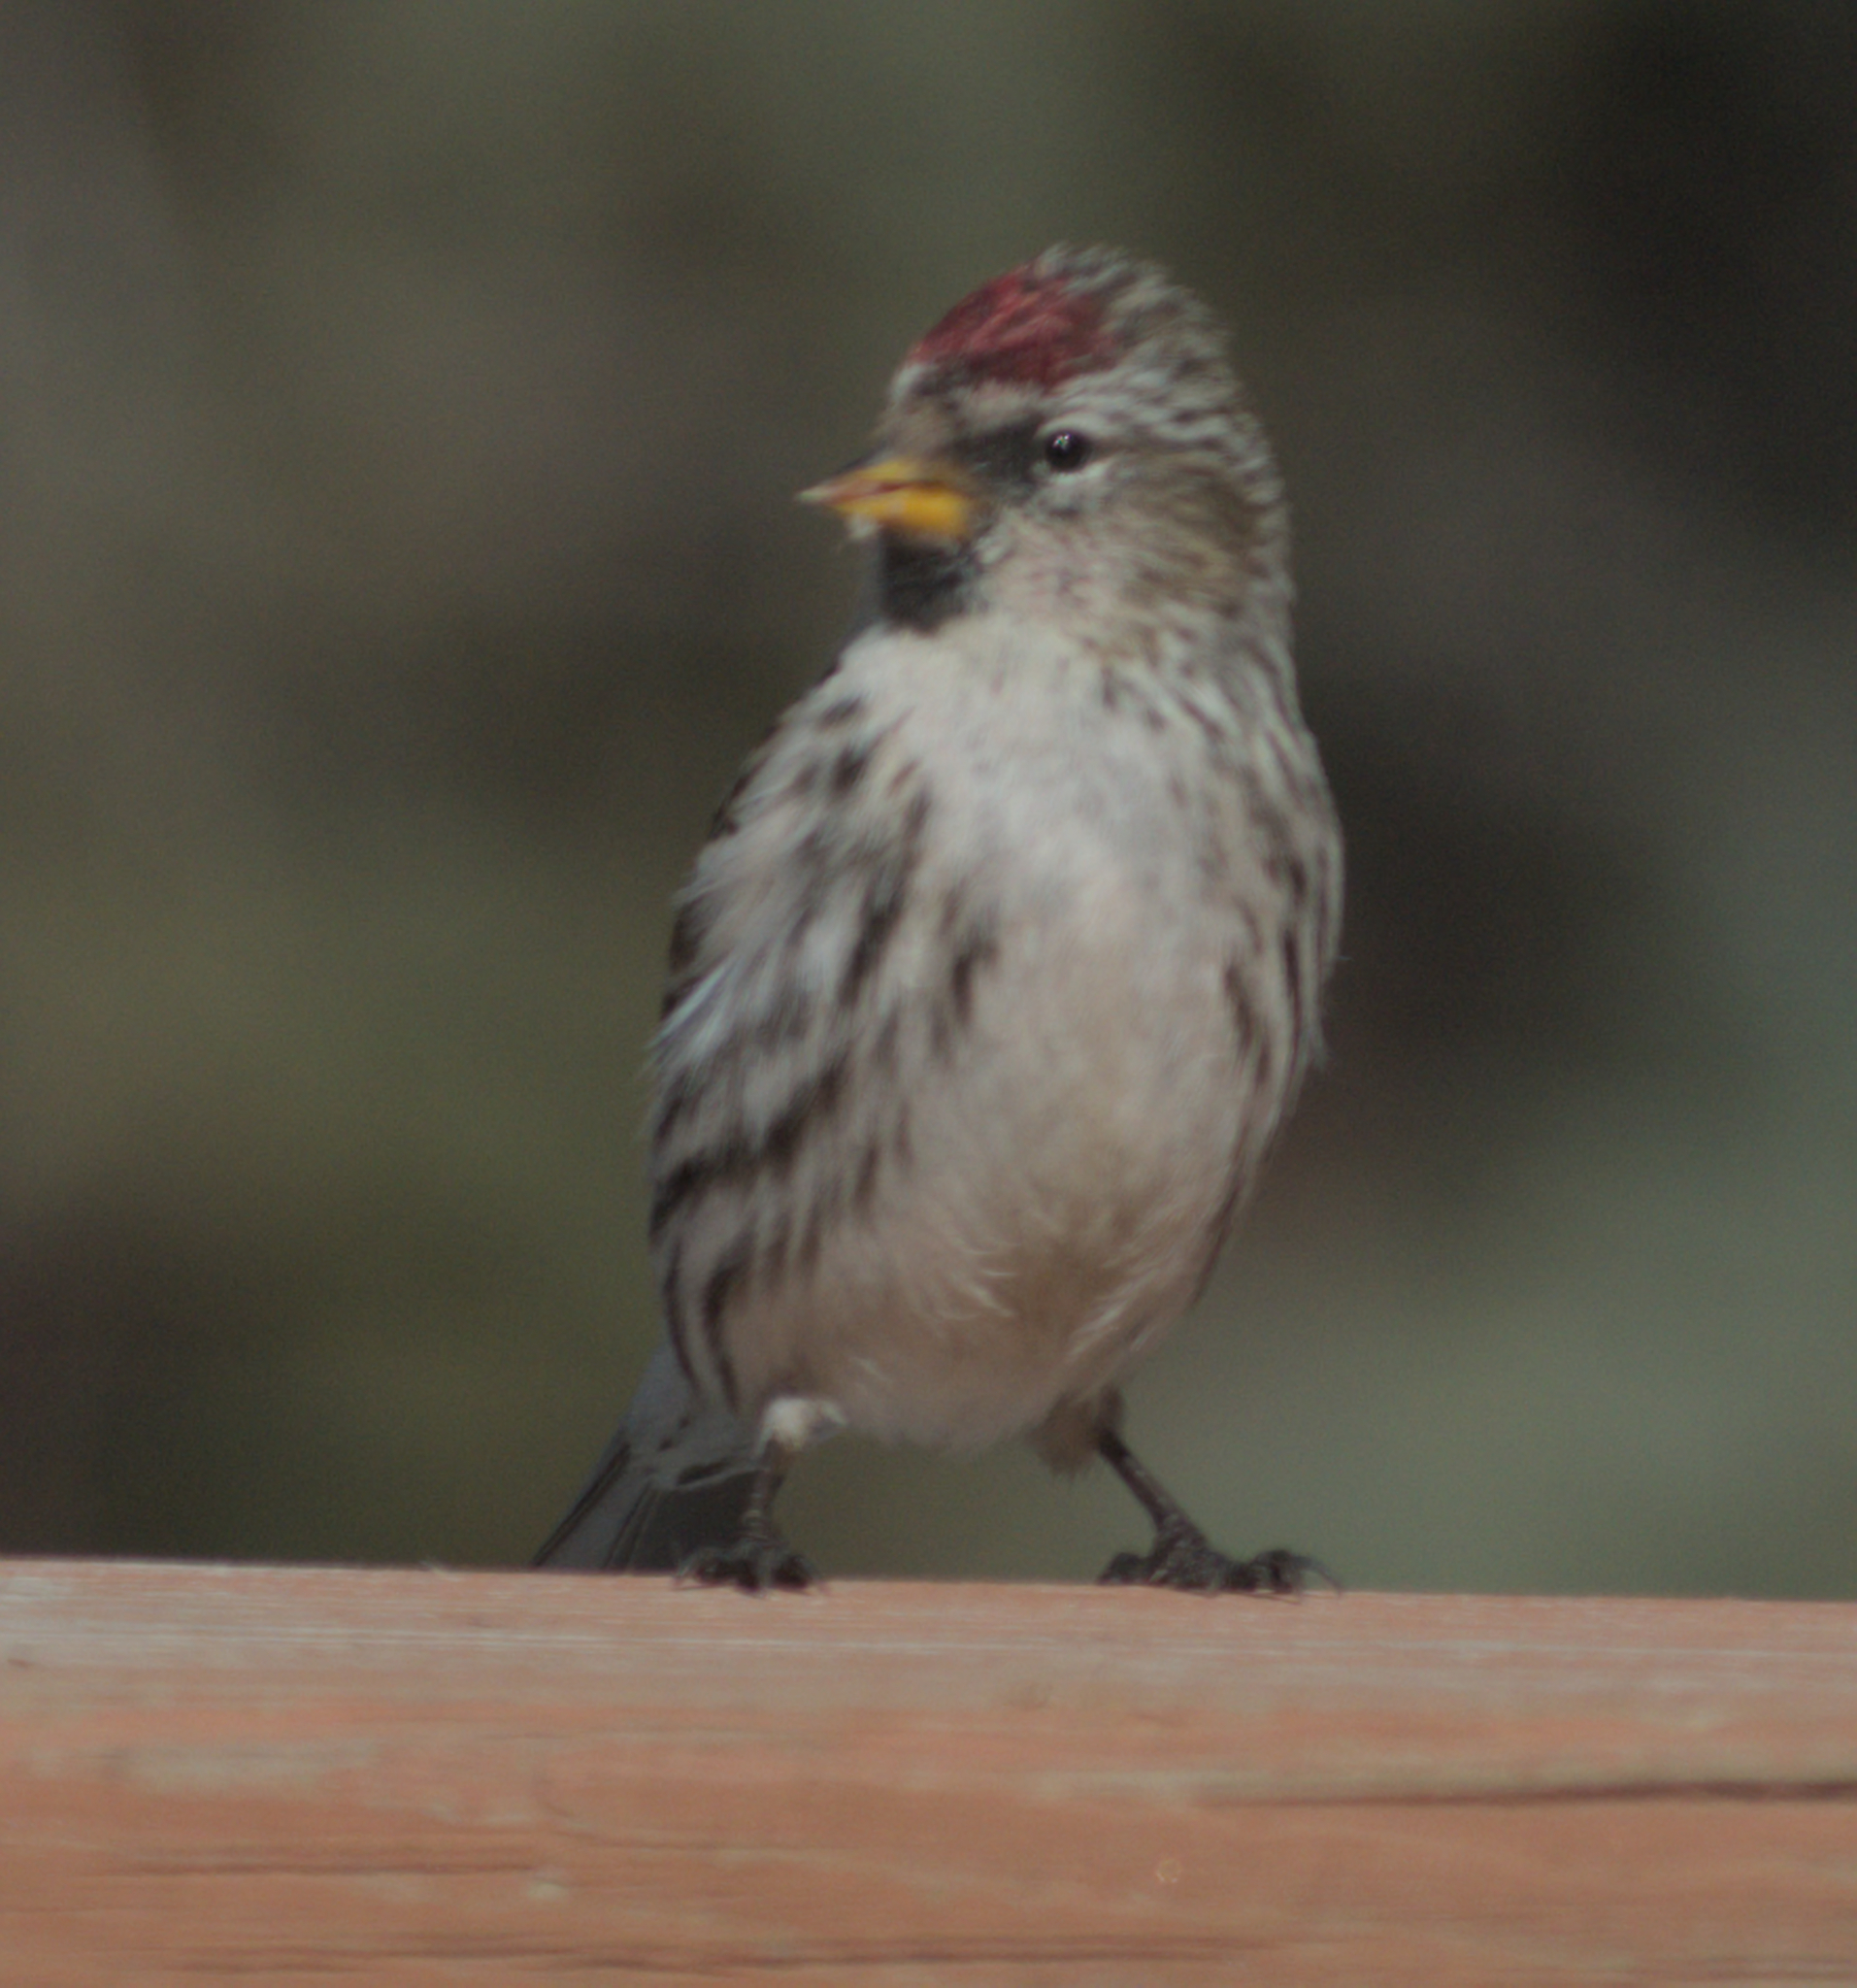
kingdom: Animalia
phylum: Chordata
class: Aves
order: Passeriformes
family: Fringillidae
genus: Acanthis
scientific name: Acanthis flammea
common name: Common redpoll
